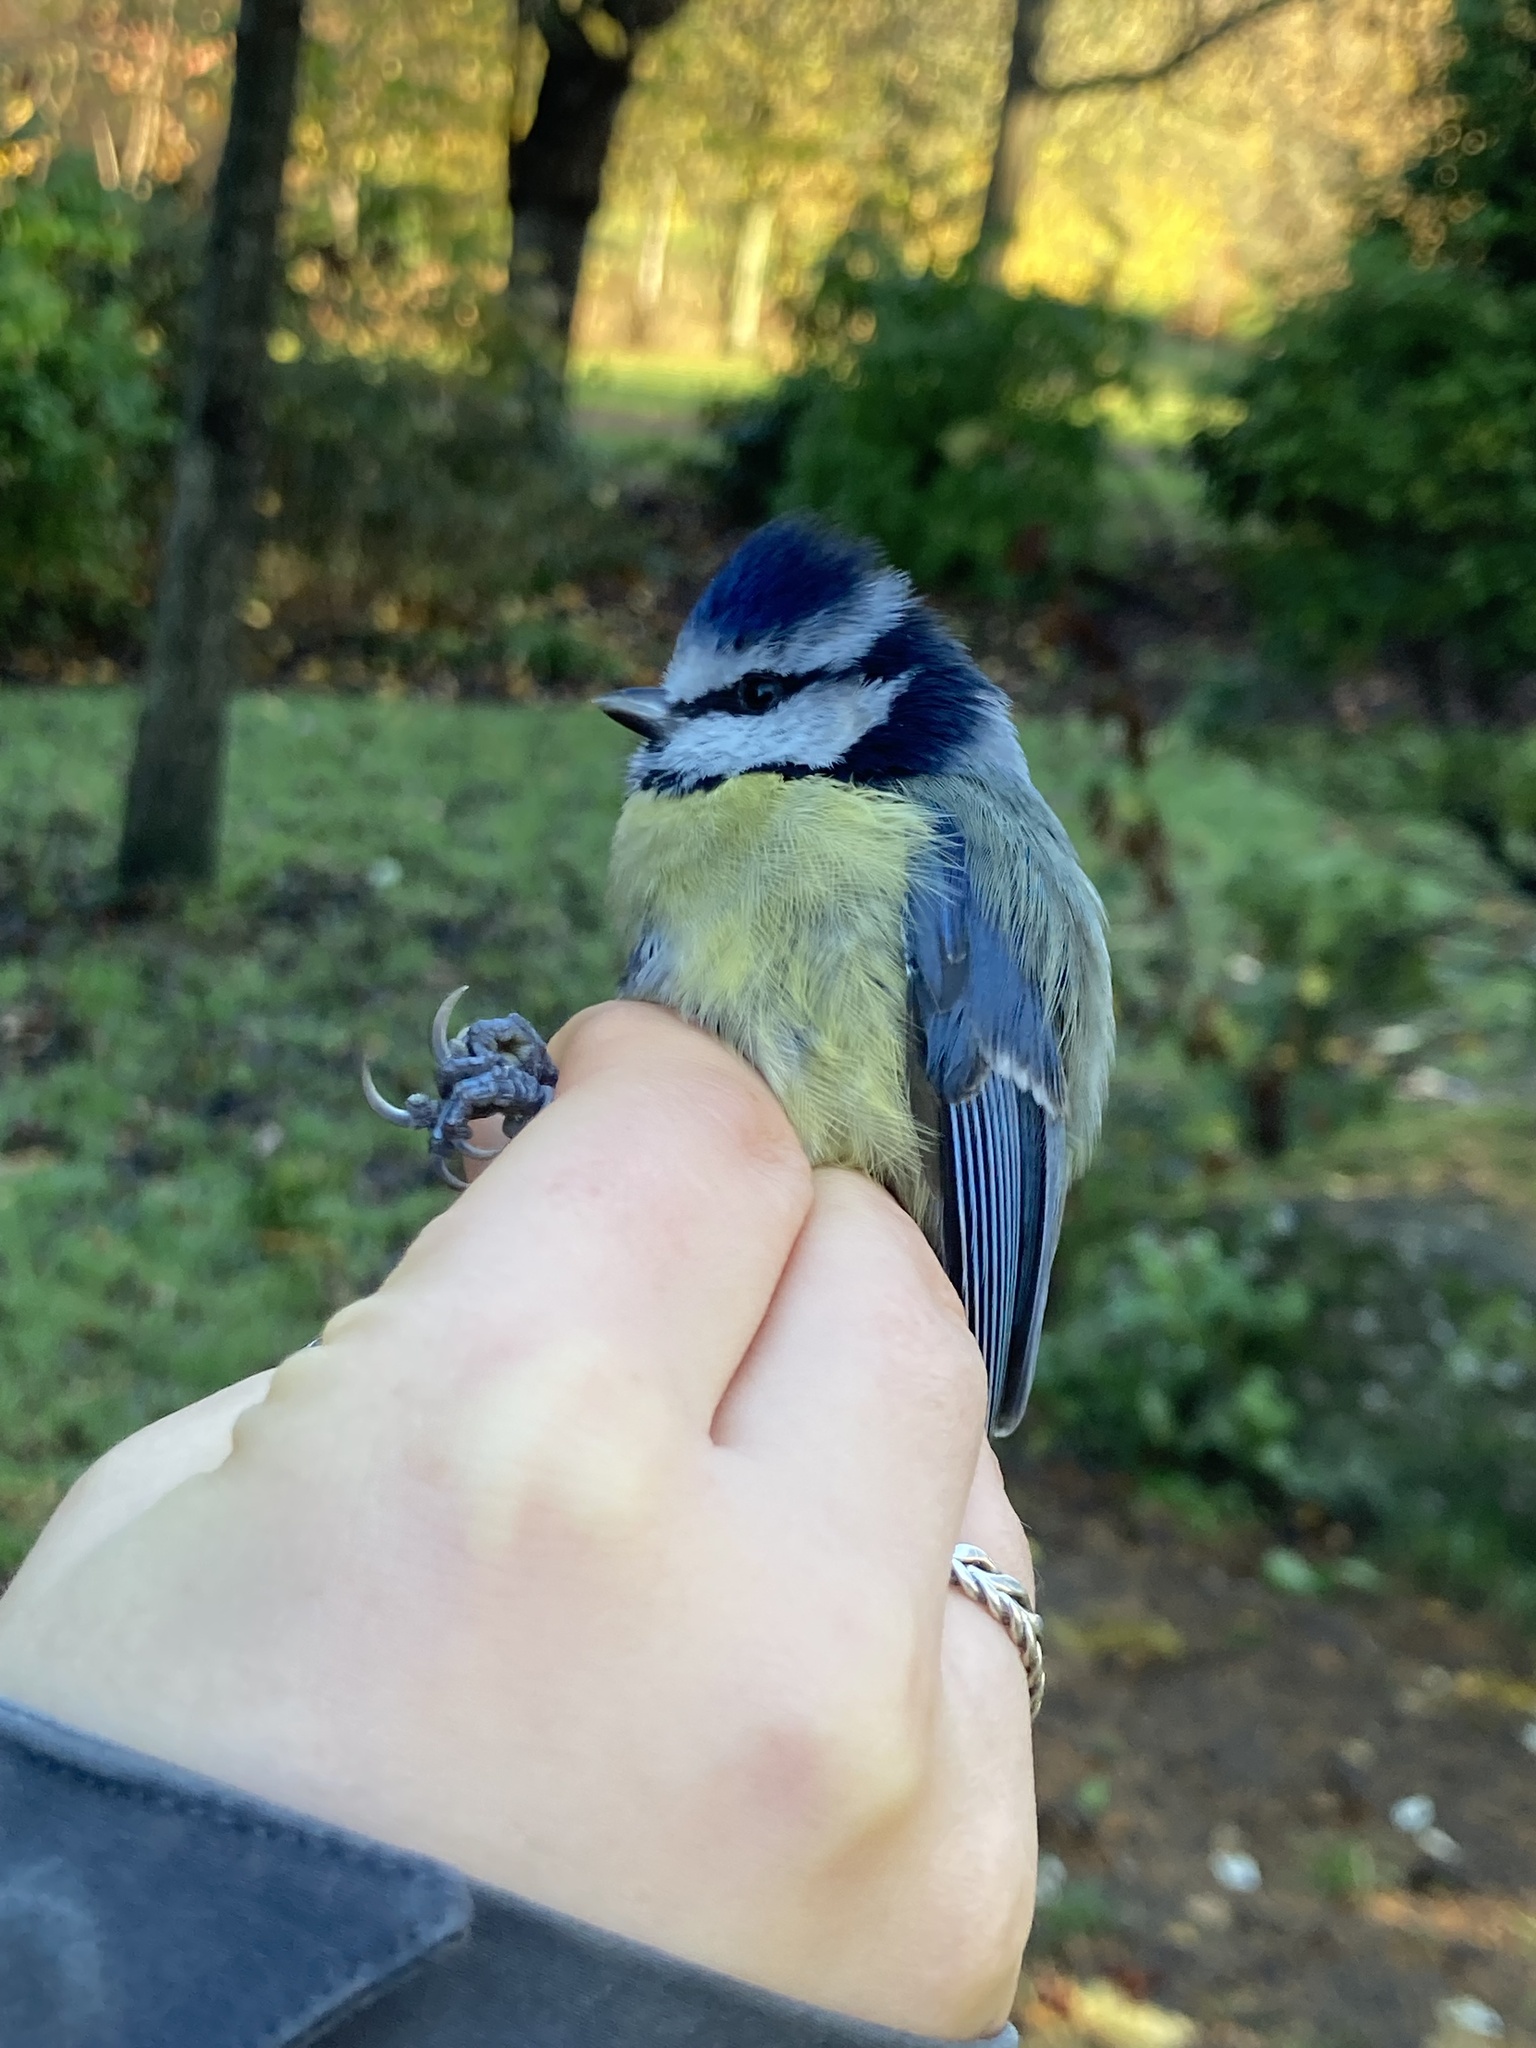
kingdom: Animalia
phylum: Chordata
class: Aves
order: Passeriformes
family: Paridae
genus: Cyanistes
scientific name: Cyanistes caeruleus
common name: Eurasian blue tit
